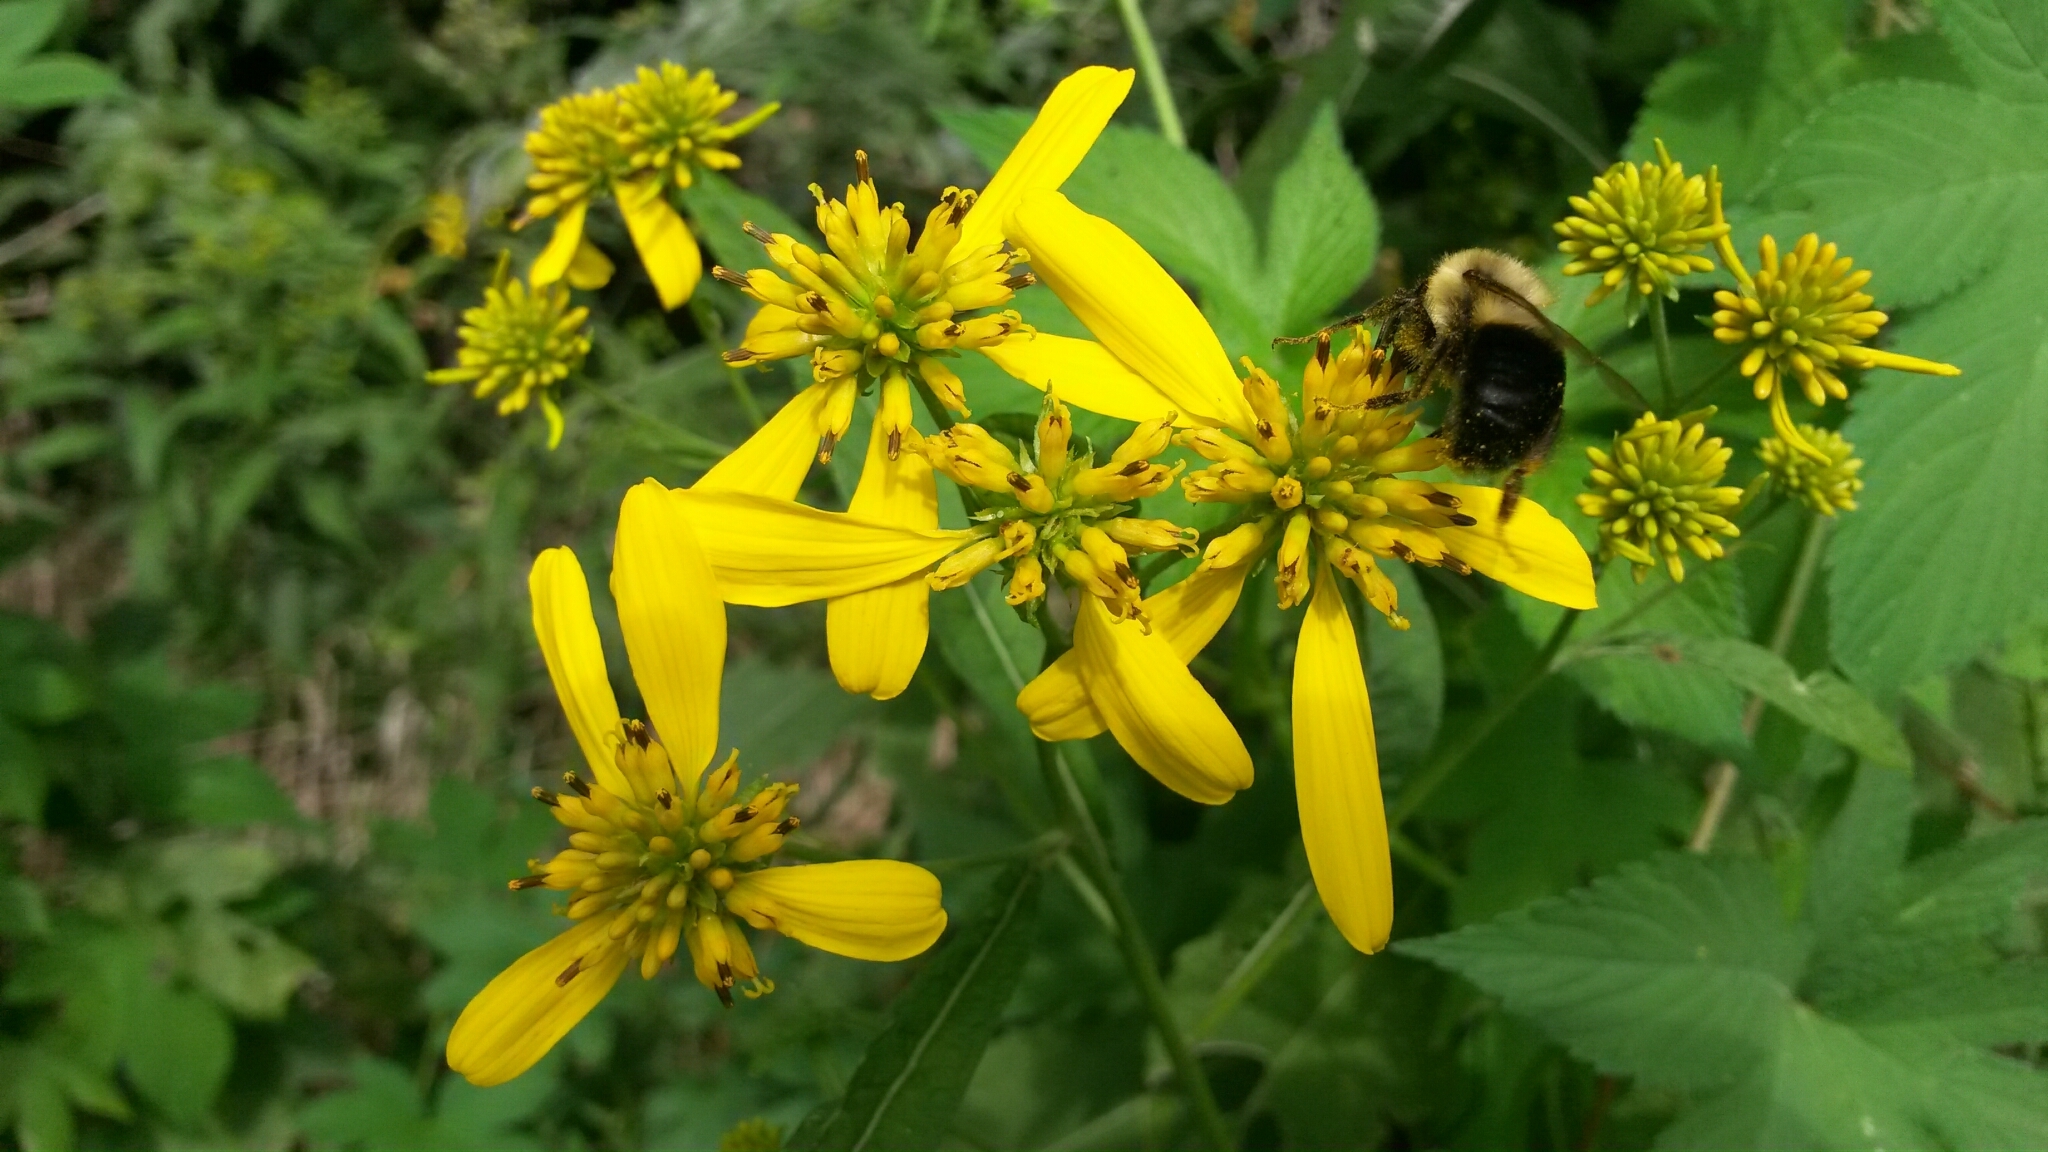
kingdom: Plantae
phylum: Tracheophyta
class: Magnoliopsida
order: Asterales
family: Asteraceae
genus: Verbesina
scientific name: Verbesina alternifolia
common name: Wingstem
